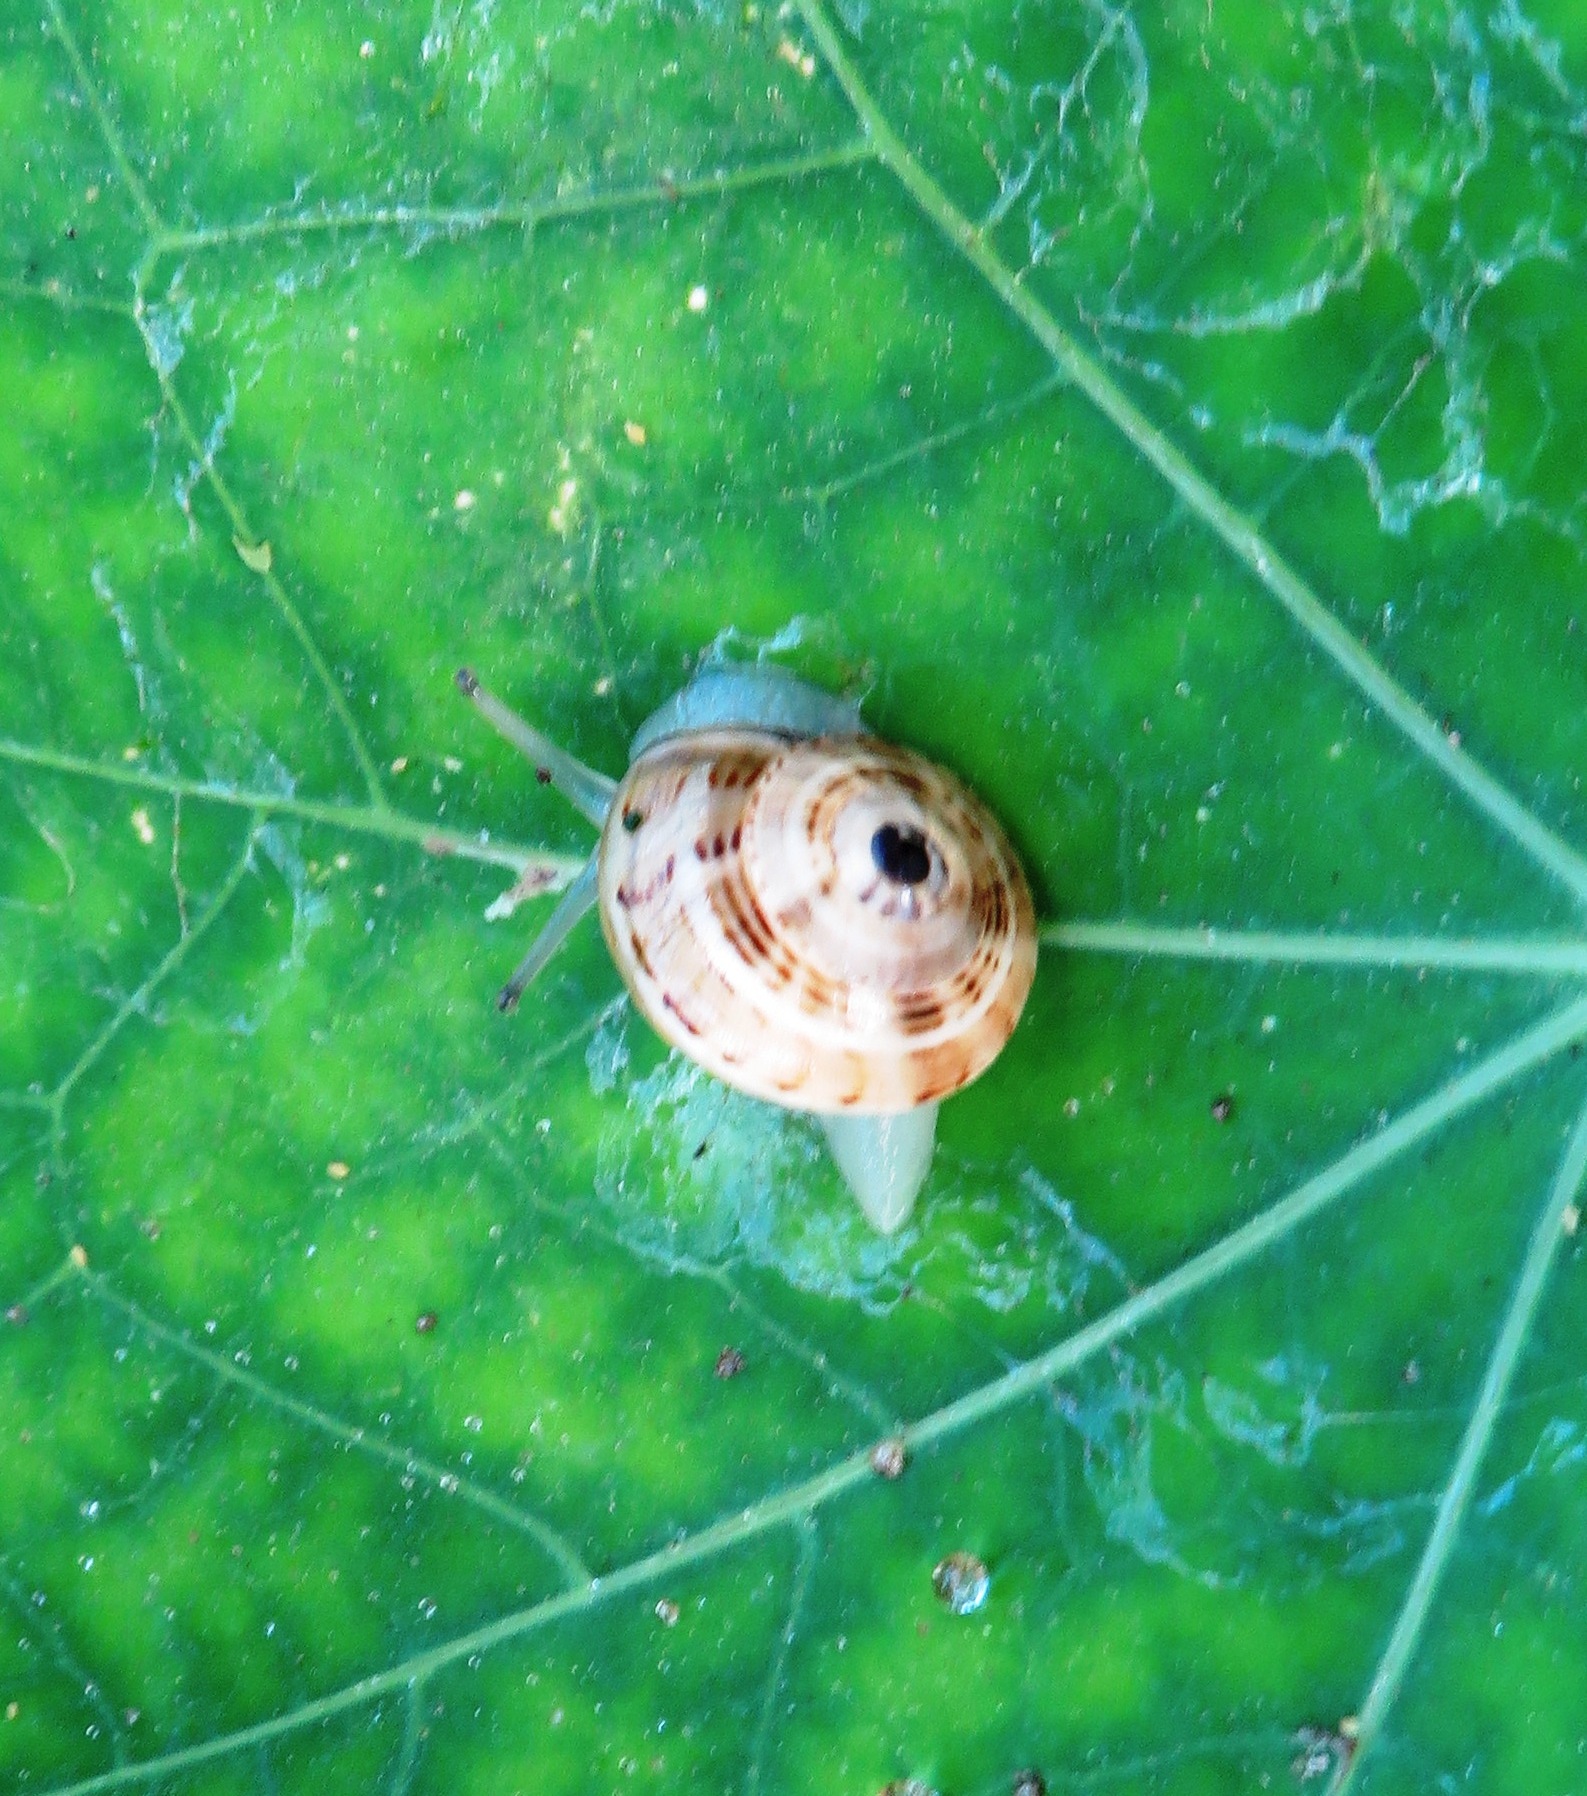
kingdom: Animalia
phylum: Mollusca
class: Gastropoda
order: Stylommatophora
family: Helicidae
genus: Theba
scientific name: Theba pisana
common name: White snail
